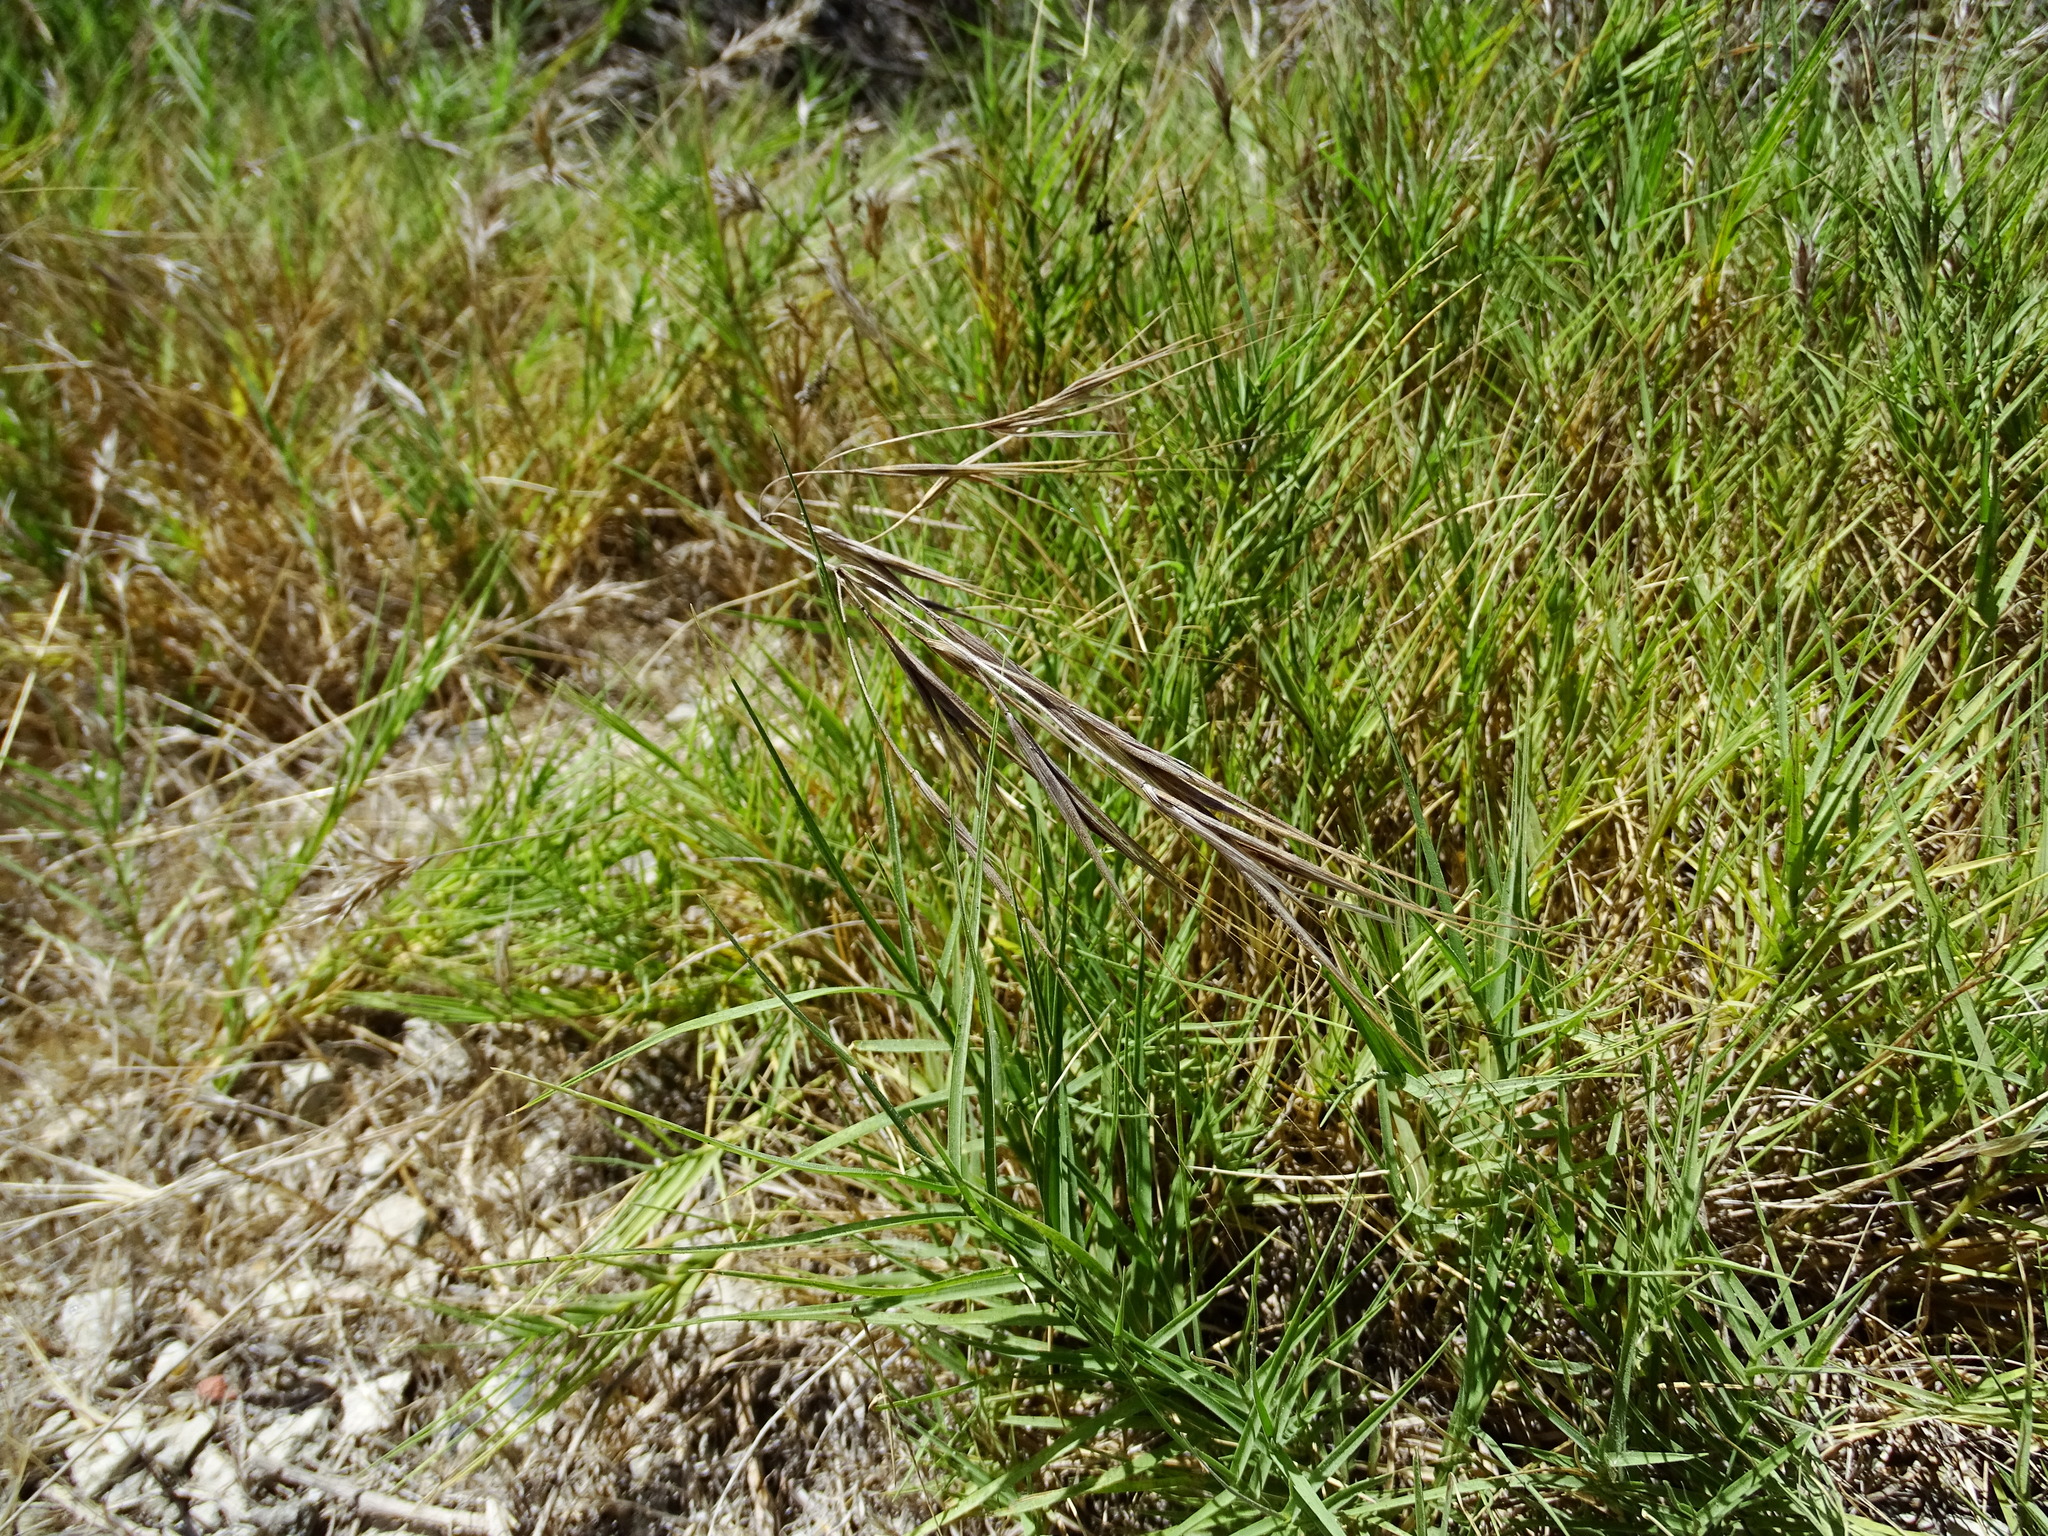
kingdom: Plantae
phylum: Tracheophyta
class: Liliopsida
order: Poales
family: Poaceae
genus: Bromus
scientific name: Bromus diandrus
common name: Ripgut brome
